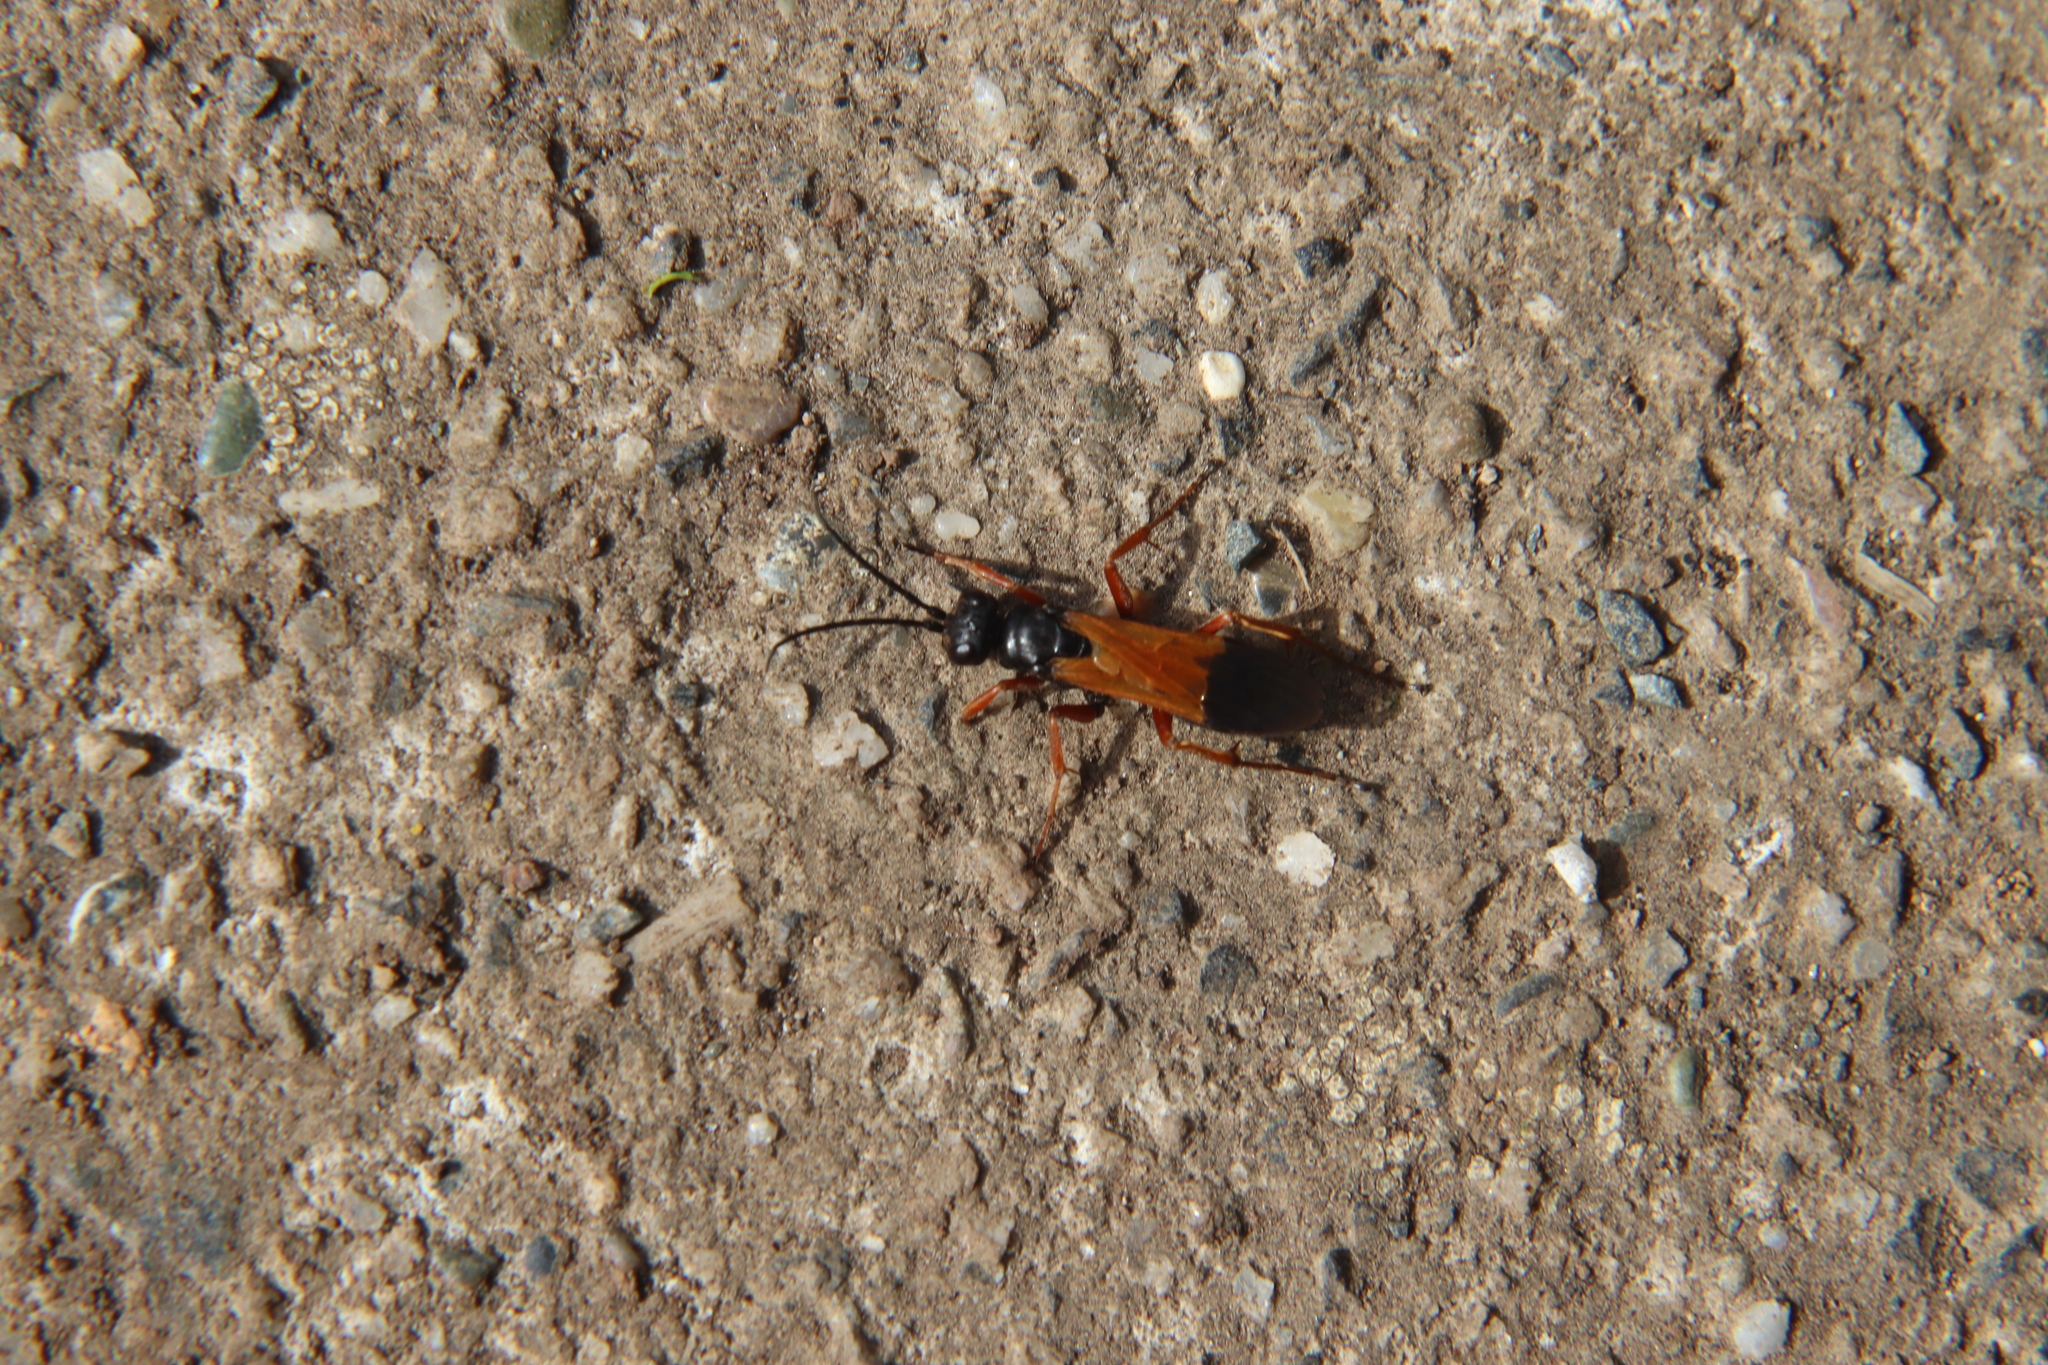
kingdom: Animalia
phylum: Arthropoda
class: Insecta
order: Hymenoptera
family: Pompilidae
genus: Priocnemis
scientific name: Priocnemis conformis
